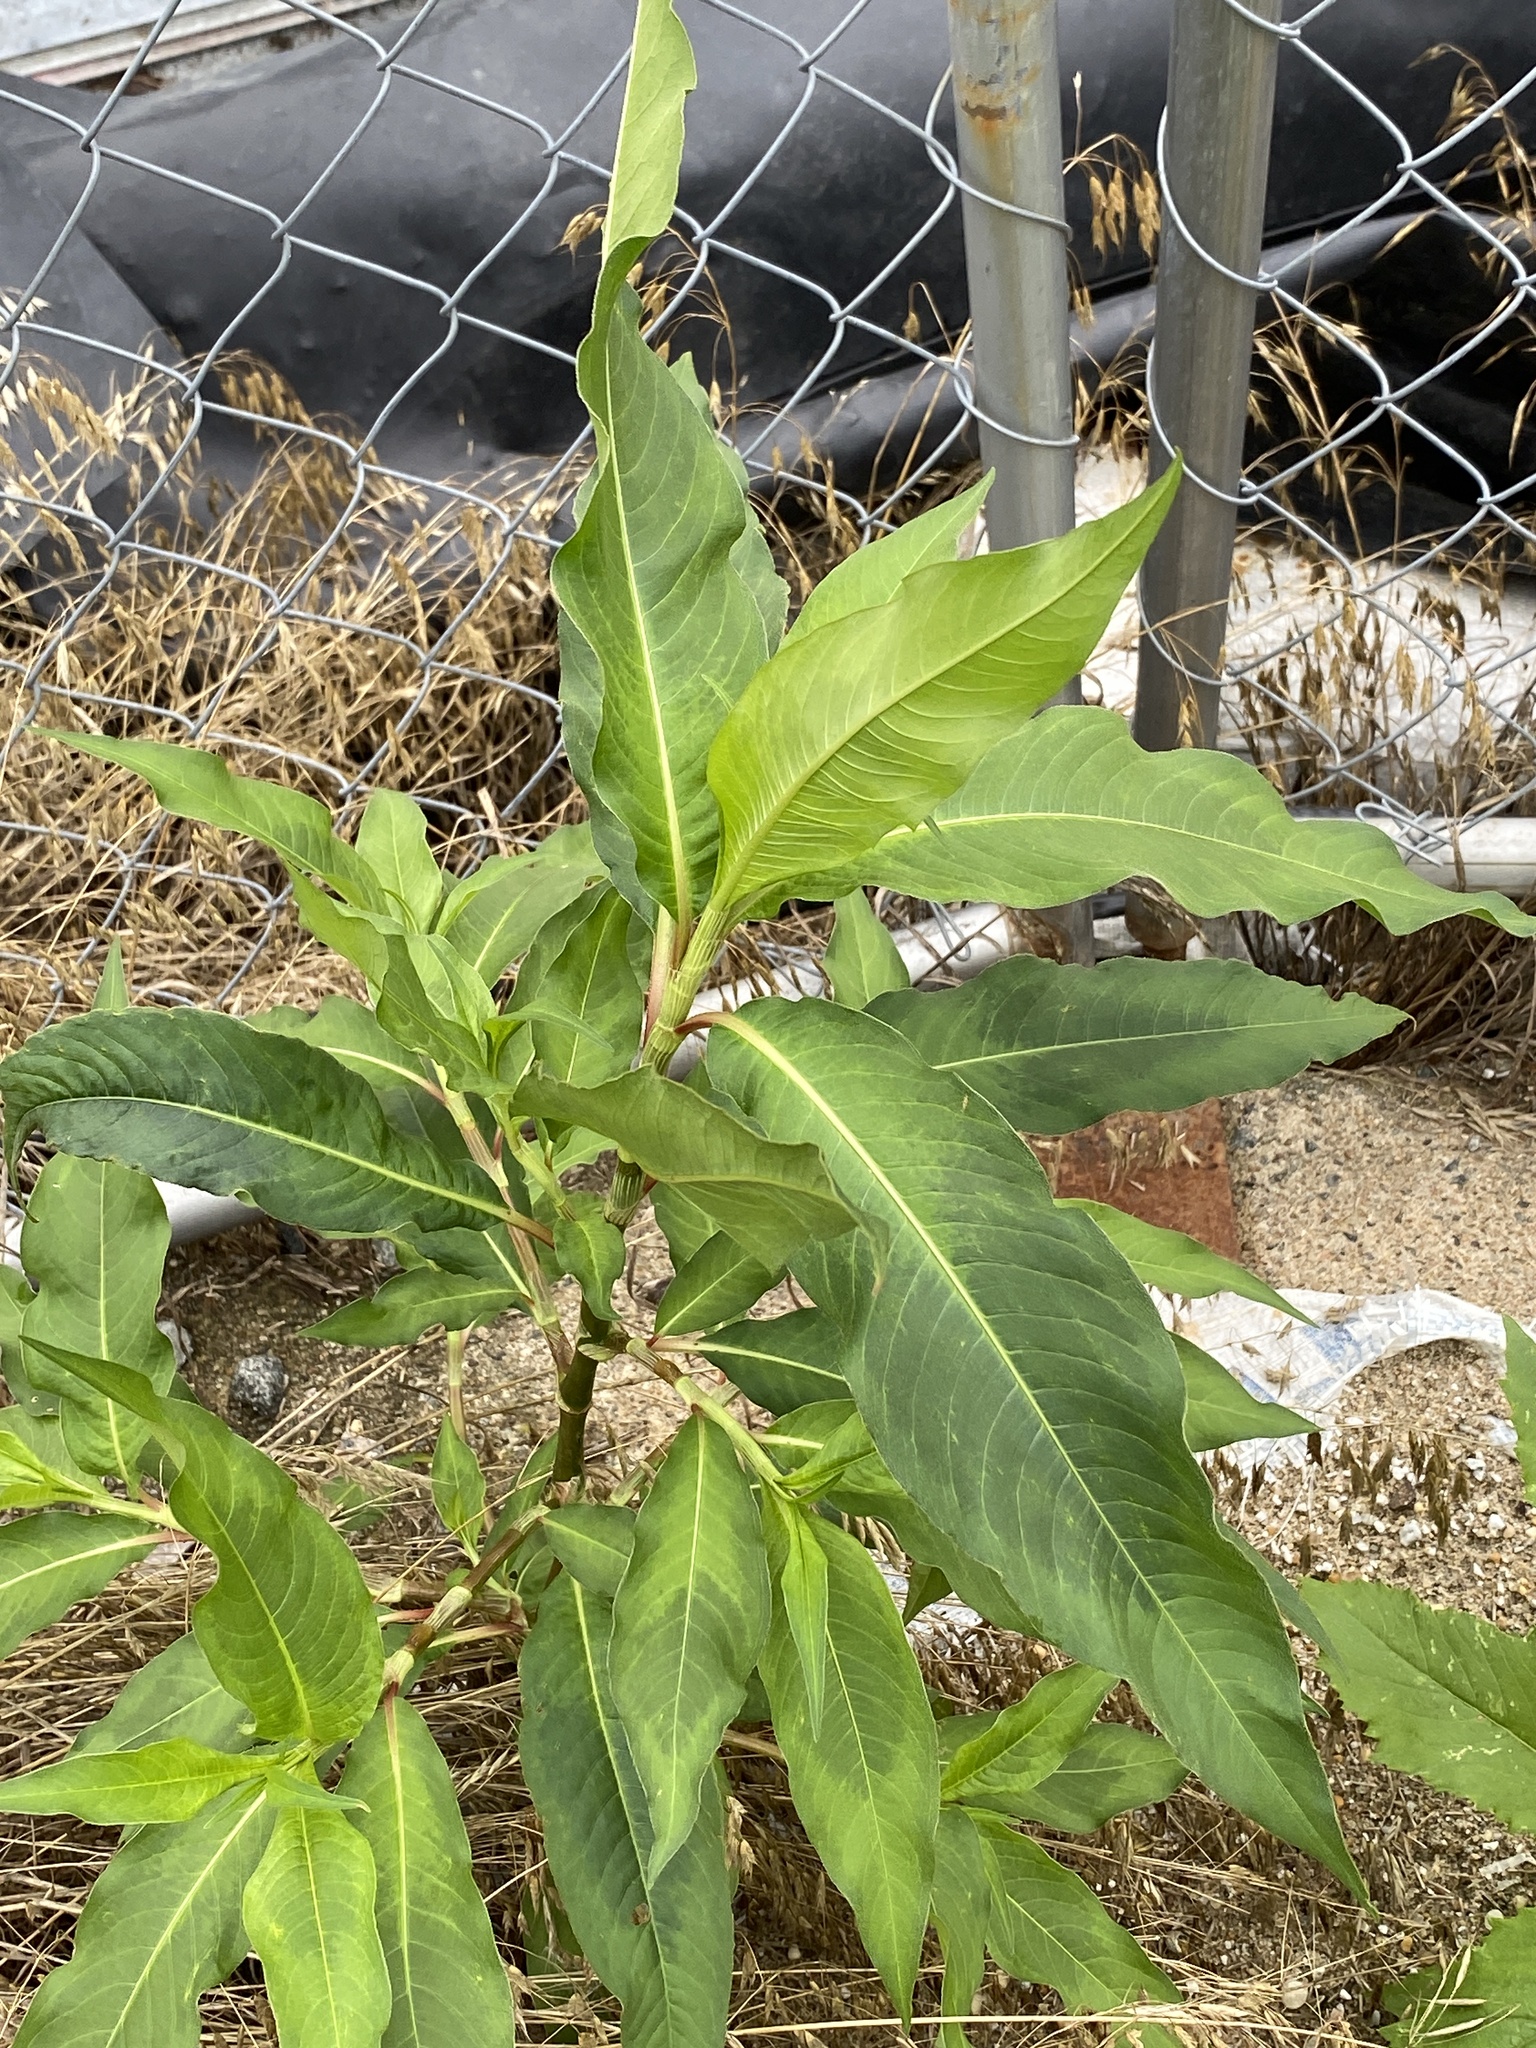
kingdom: Plantae
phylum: Tracheophyta
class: Magnoliopsida
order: Caryophyllales
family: Polygonaceae
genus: Persicaria
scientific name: Persicaria extremiorientalis
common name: Far-eastern smartweed
